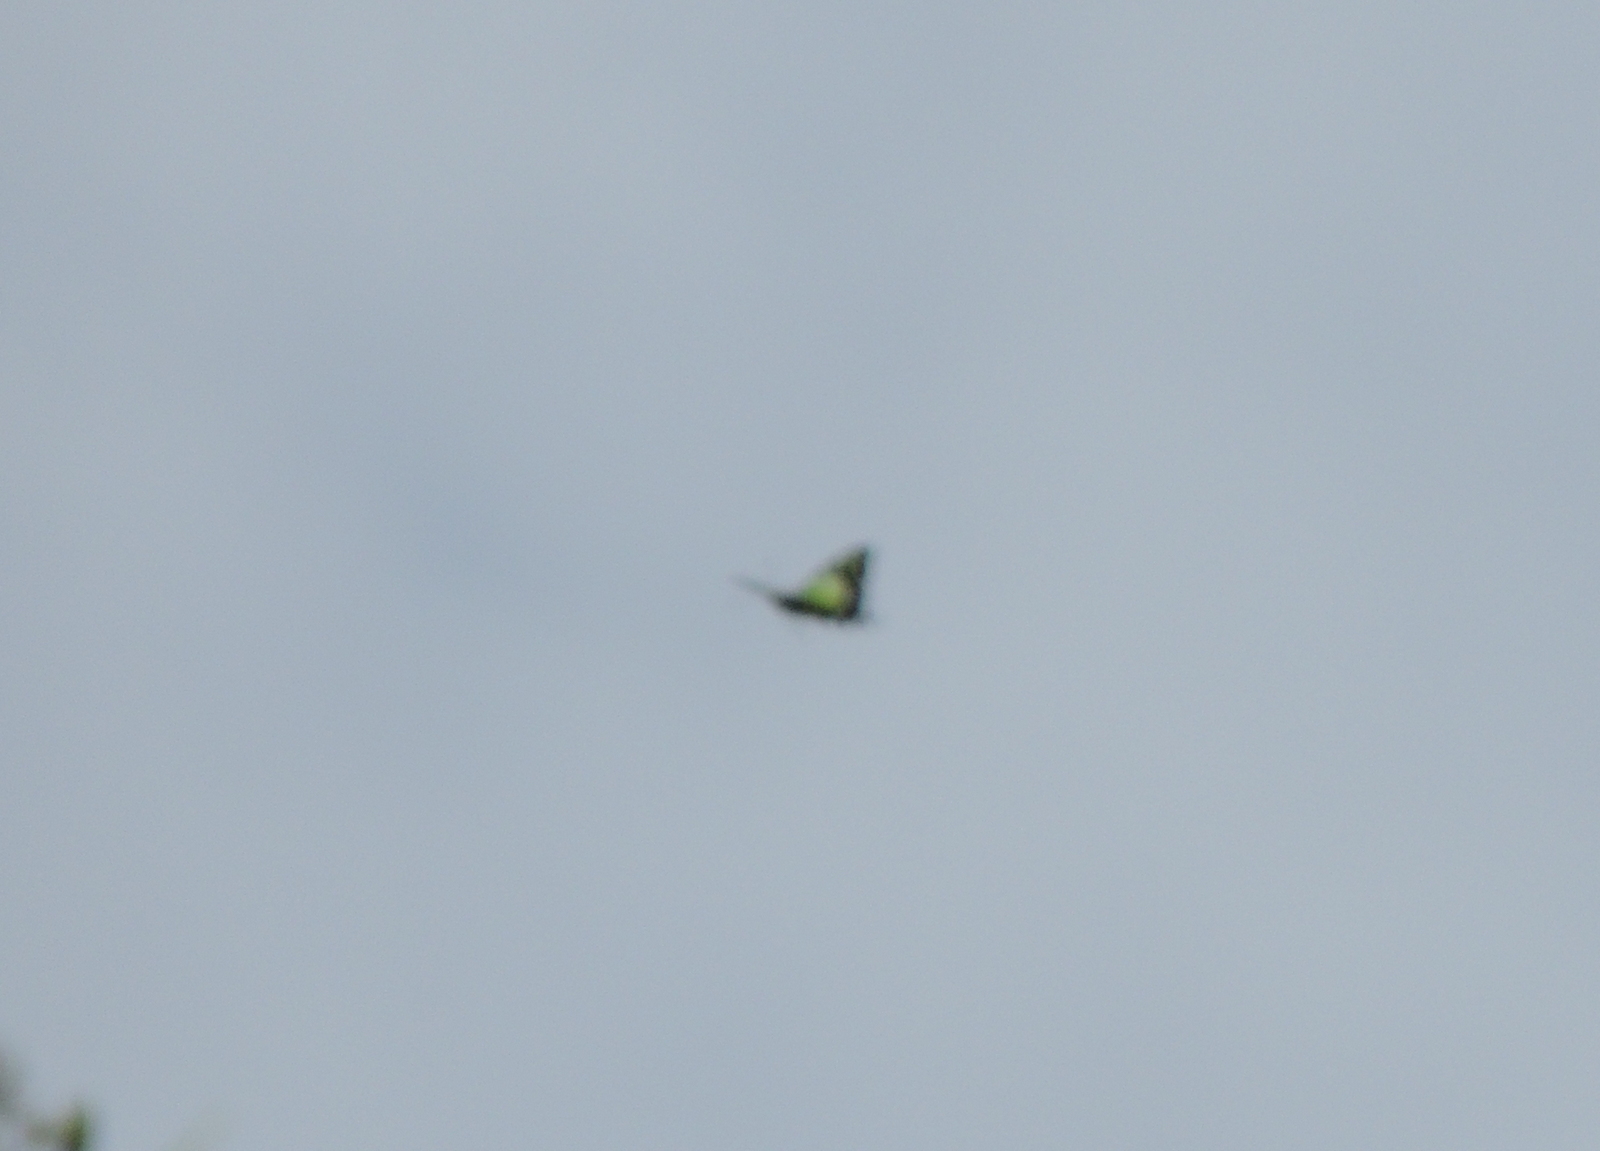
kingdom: Animalia
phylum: Arthropoda
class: Insecta
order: Lepidoptera
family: Papilionidae
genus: Graphium
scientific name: Graphium macleayanus
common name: Macleay's swallowtail
